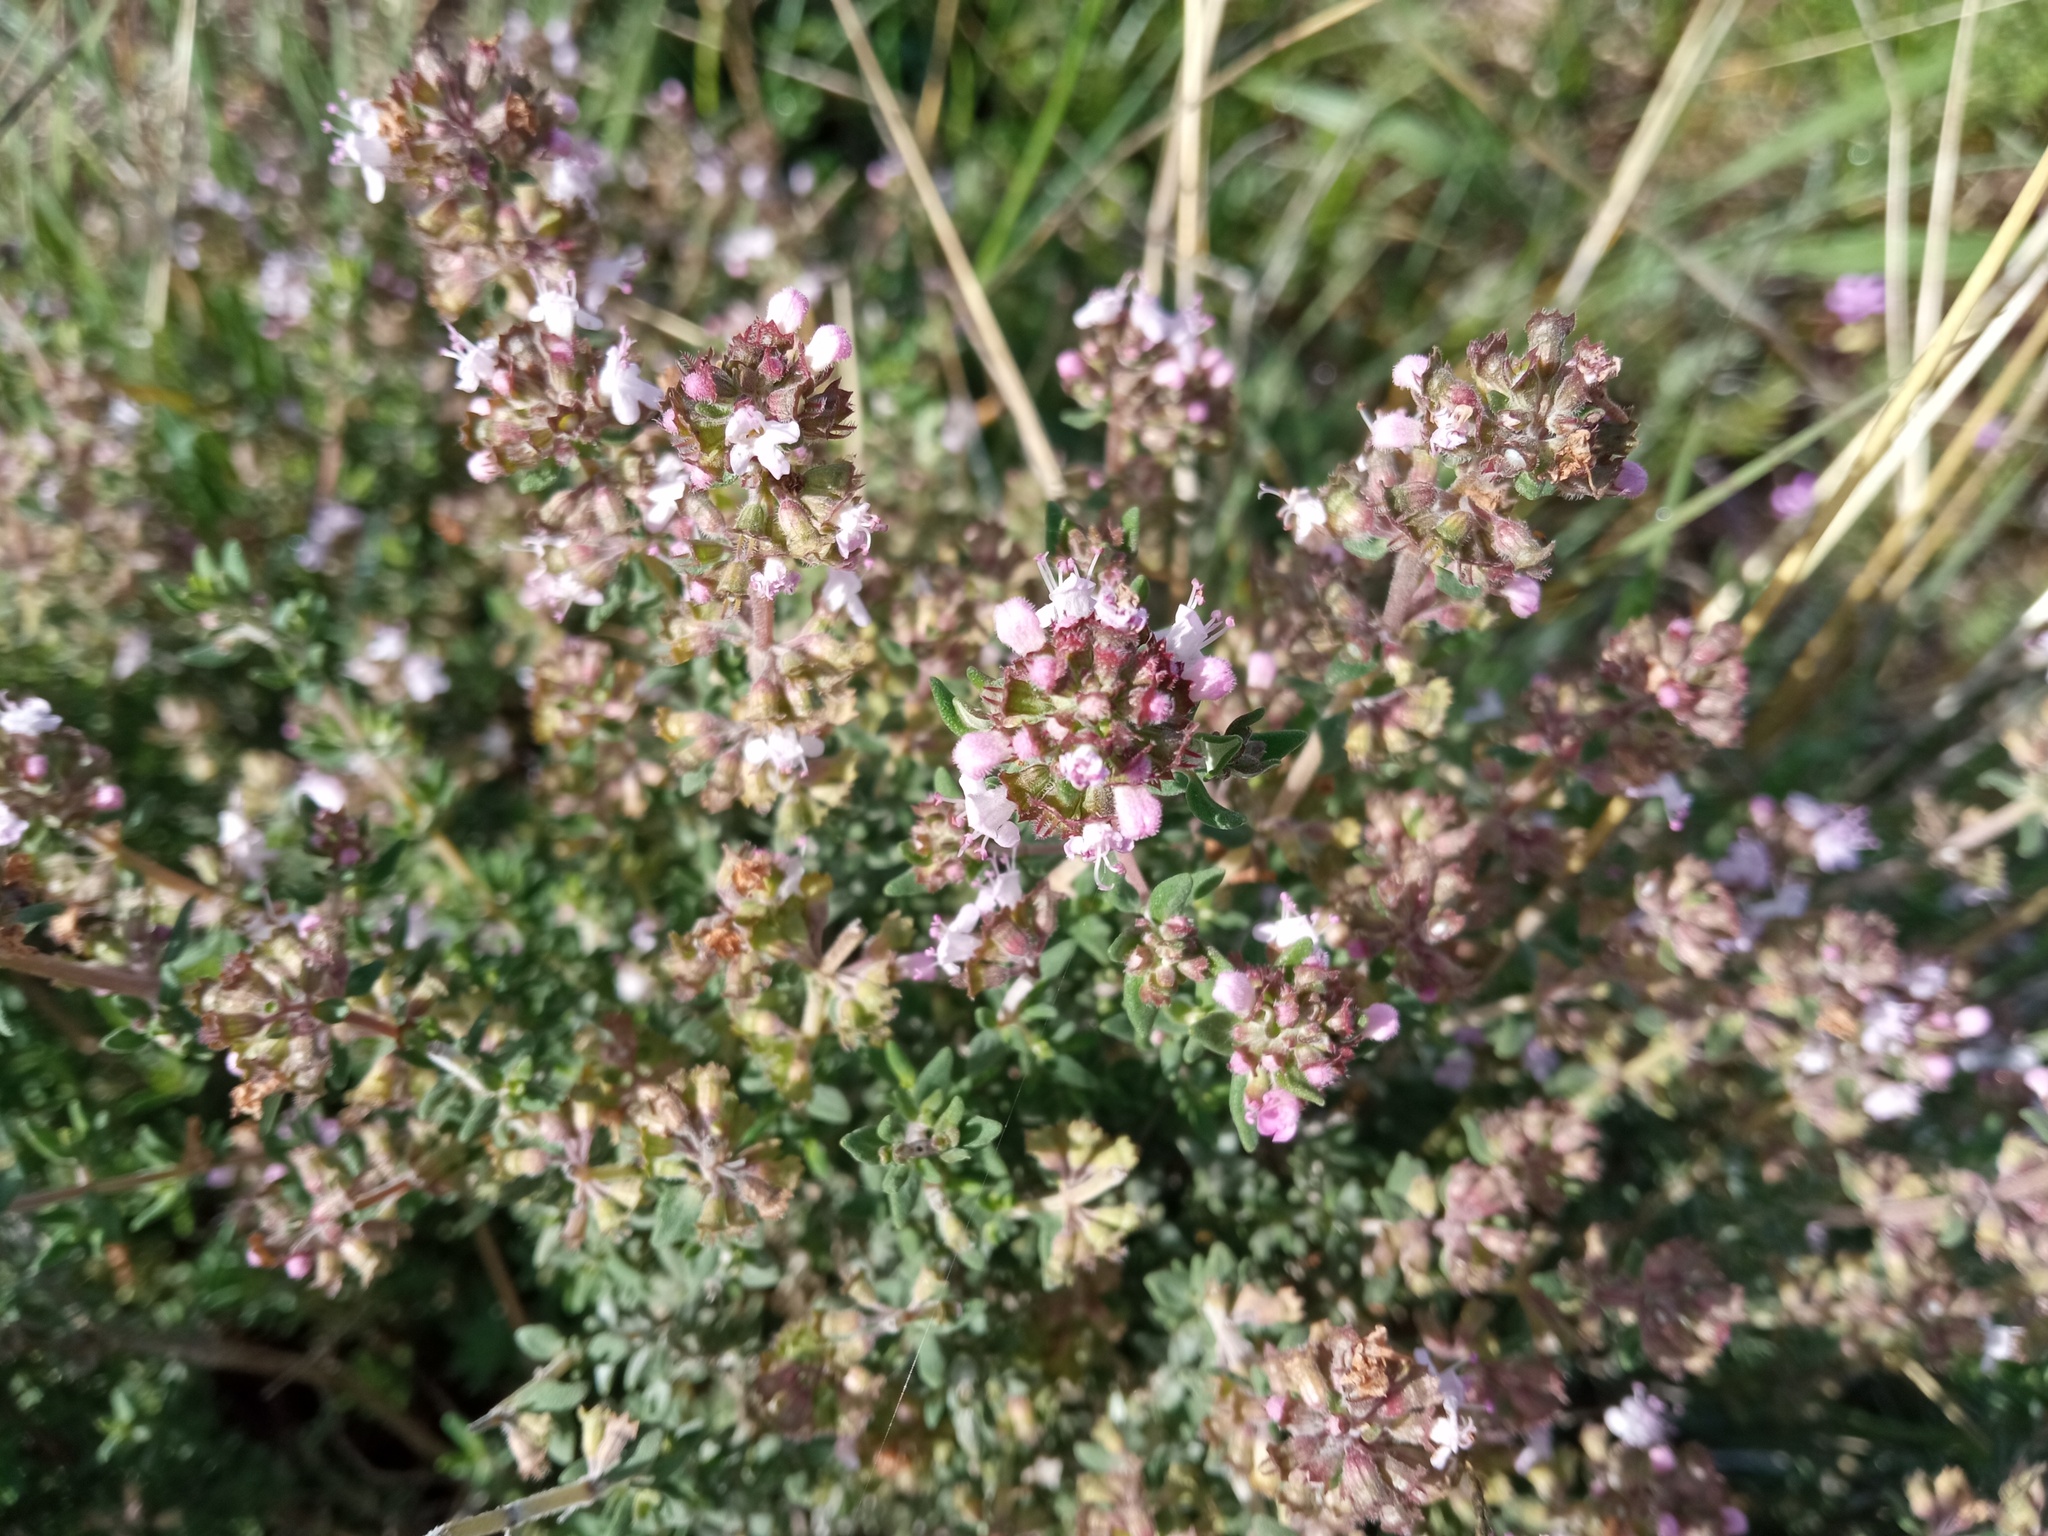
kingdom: Plantae
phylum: Tracheophyta
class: Magnoliopsida
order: Lamiales
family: Lamiaceae
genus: Thymus
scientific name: Thymus vulgaris
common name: Garden thyme
